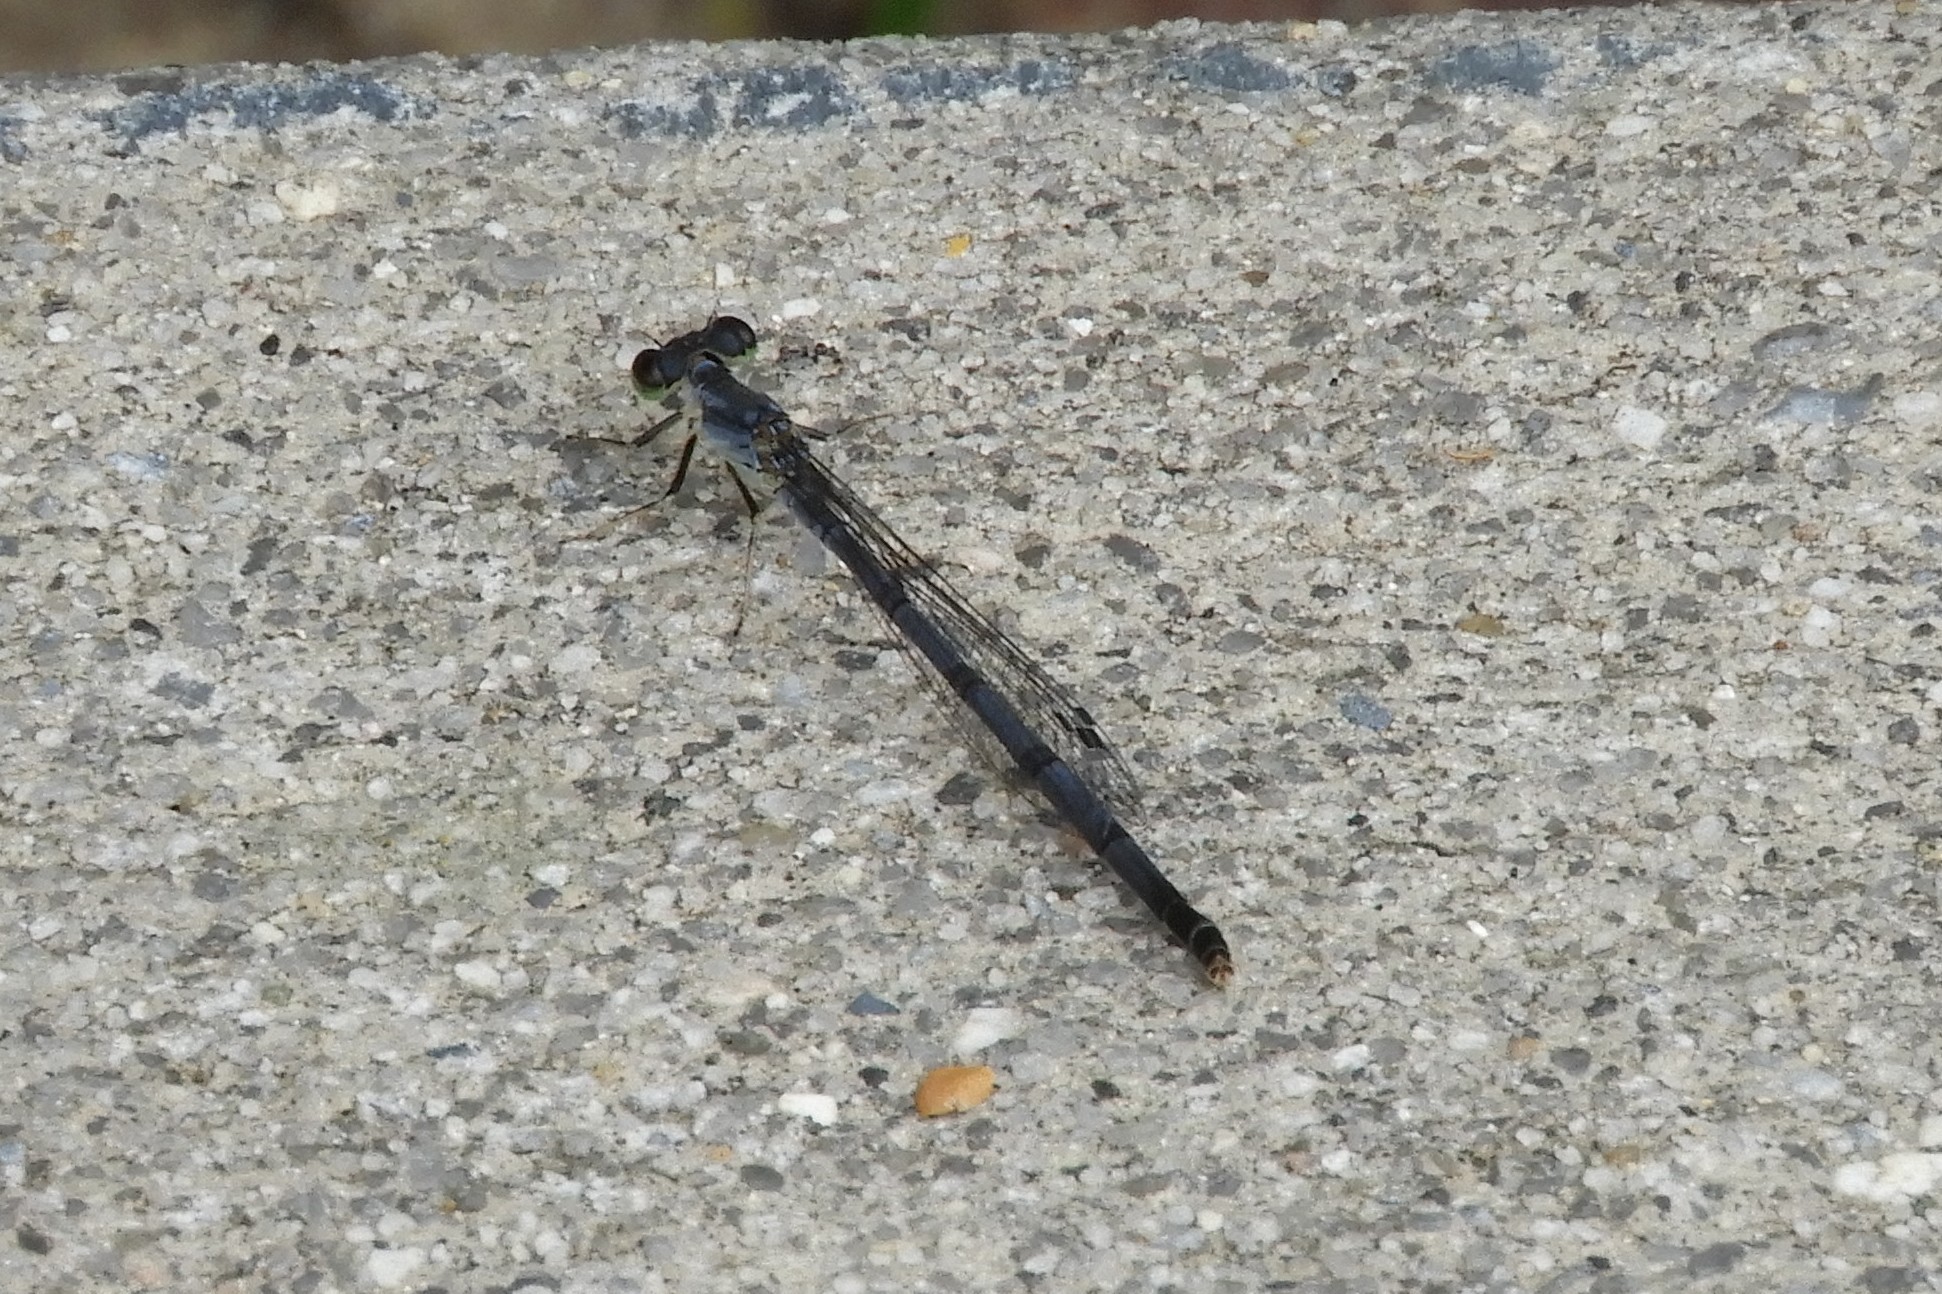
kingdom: Animalia
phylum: Arthropoda
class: Insecta
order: Odonata
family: Coenagrionidae
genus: Ischnura
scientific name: Ischnura posita
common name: Fragile forktail
